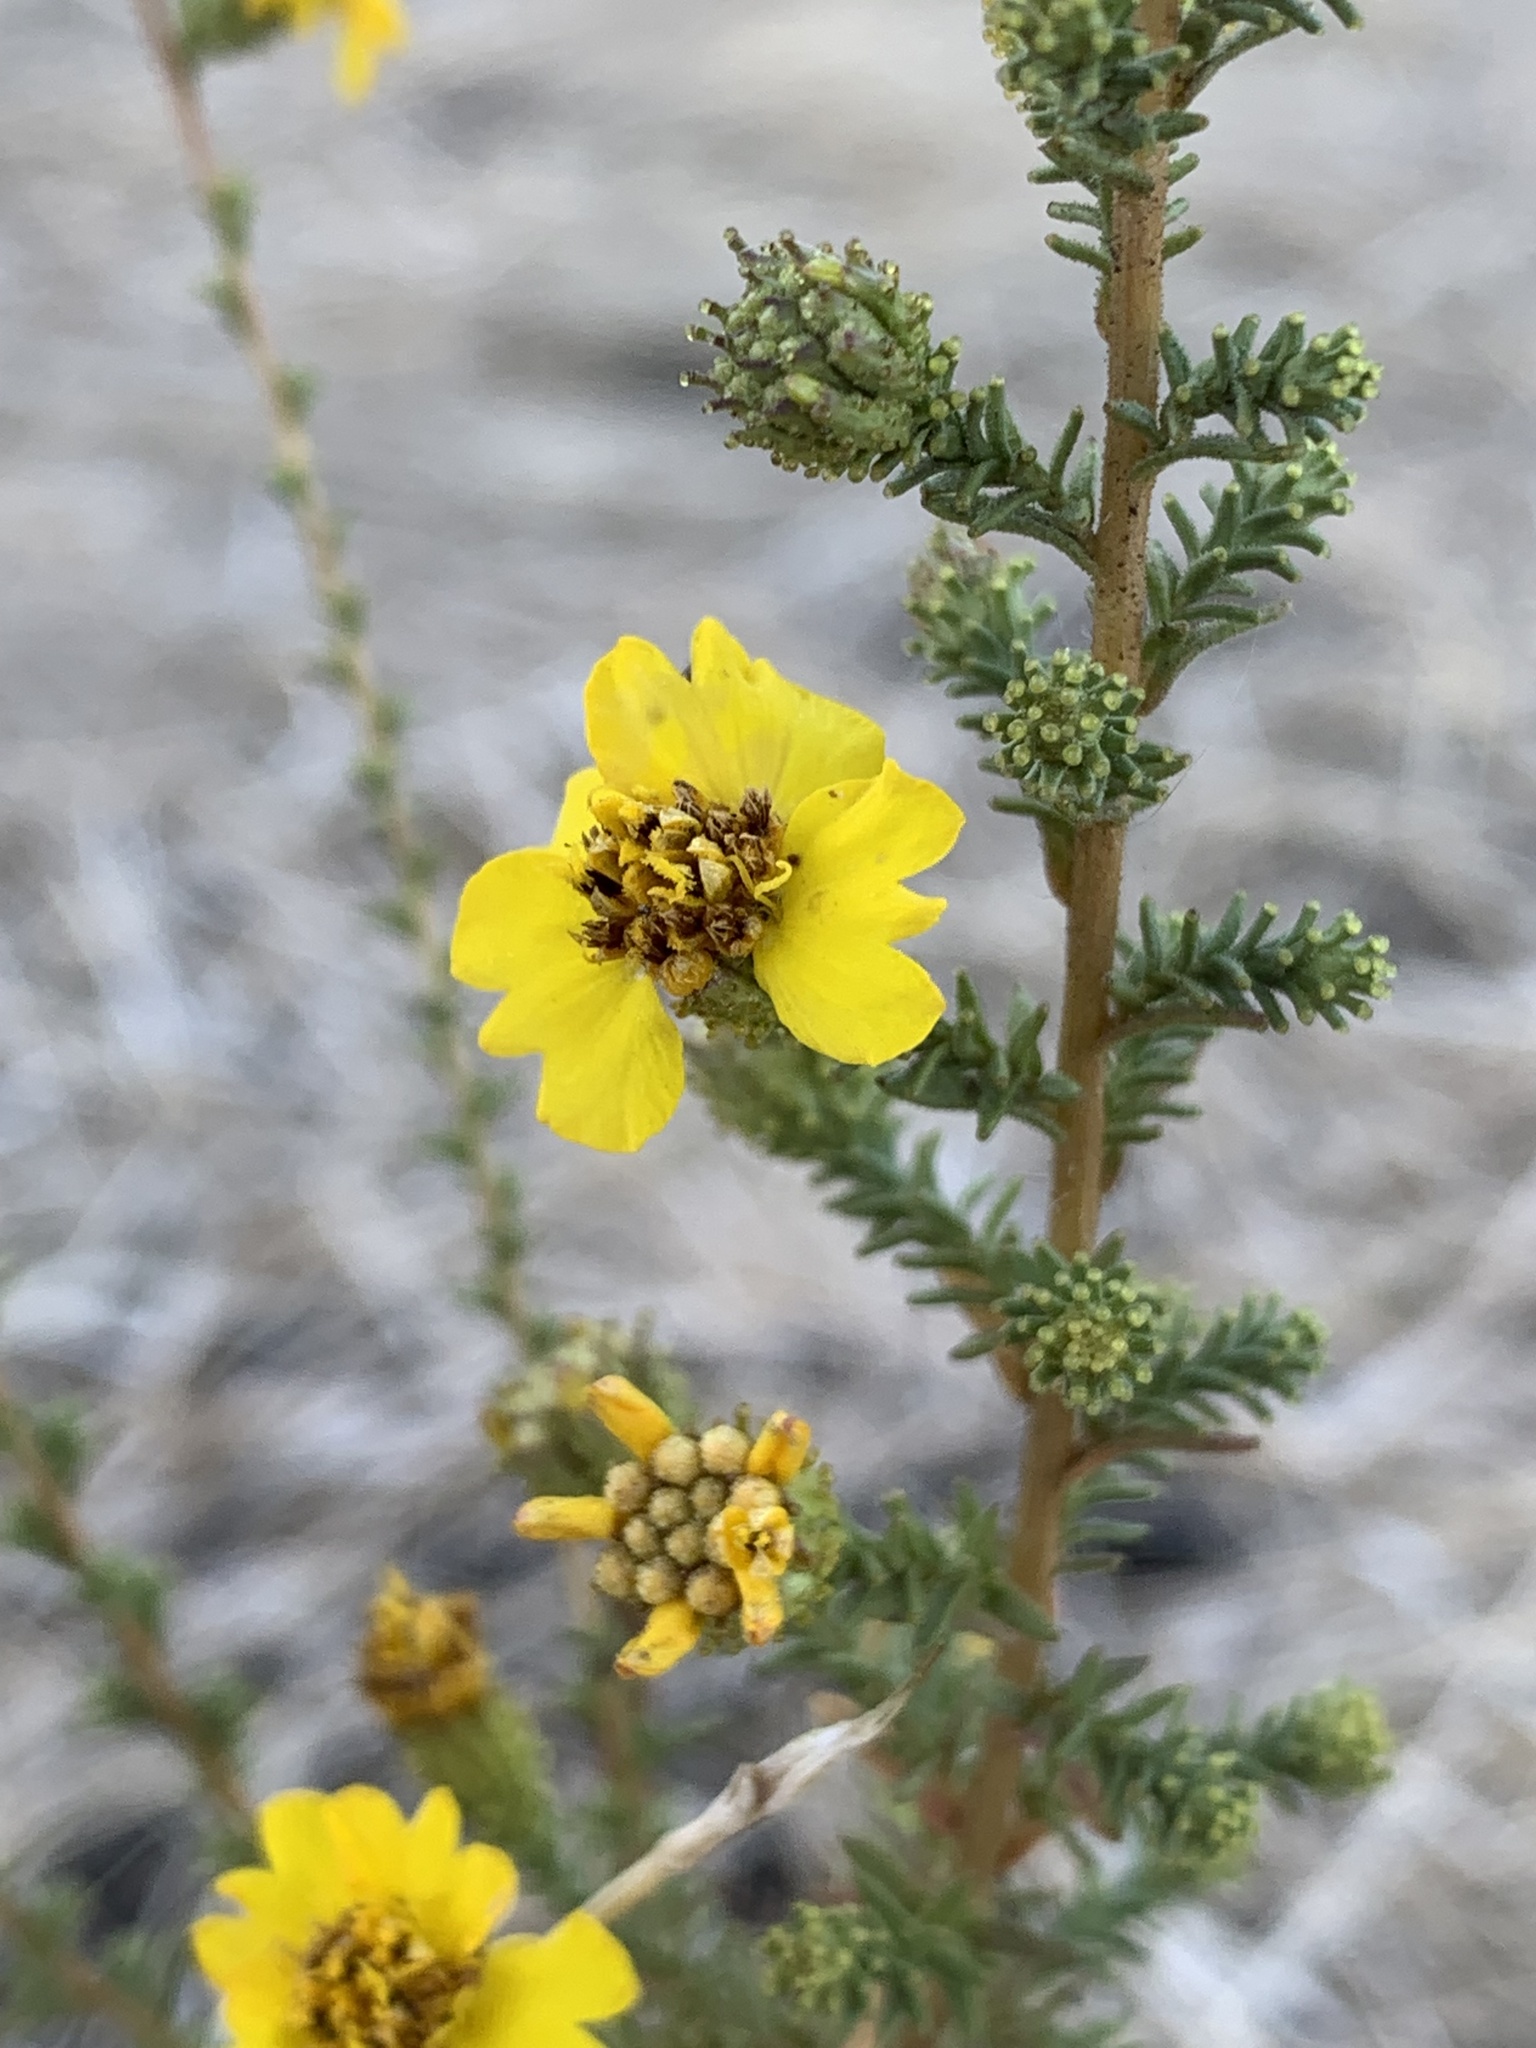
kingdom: Plantae
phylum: Tracheophyta
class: Magnoliopsida
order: Asterales
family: Asteraceae
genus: Holocarpha
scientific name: Holocarpha virgata
